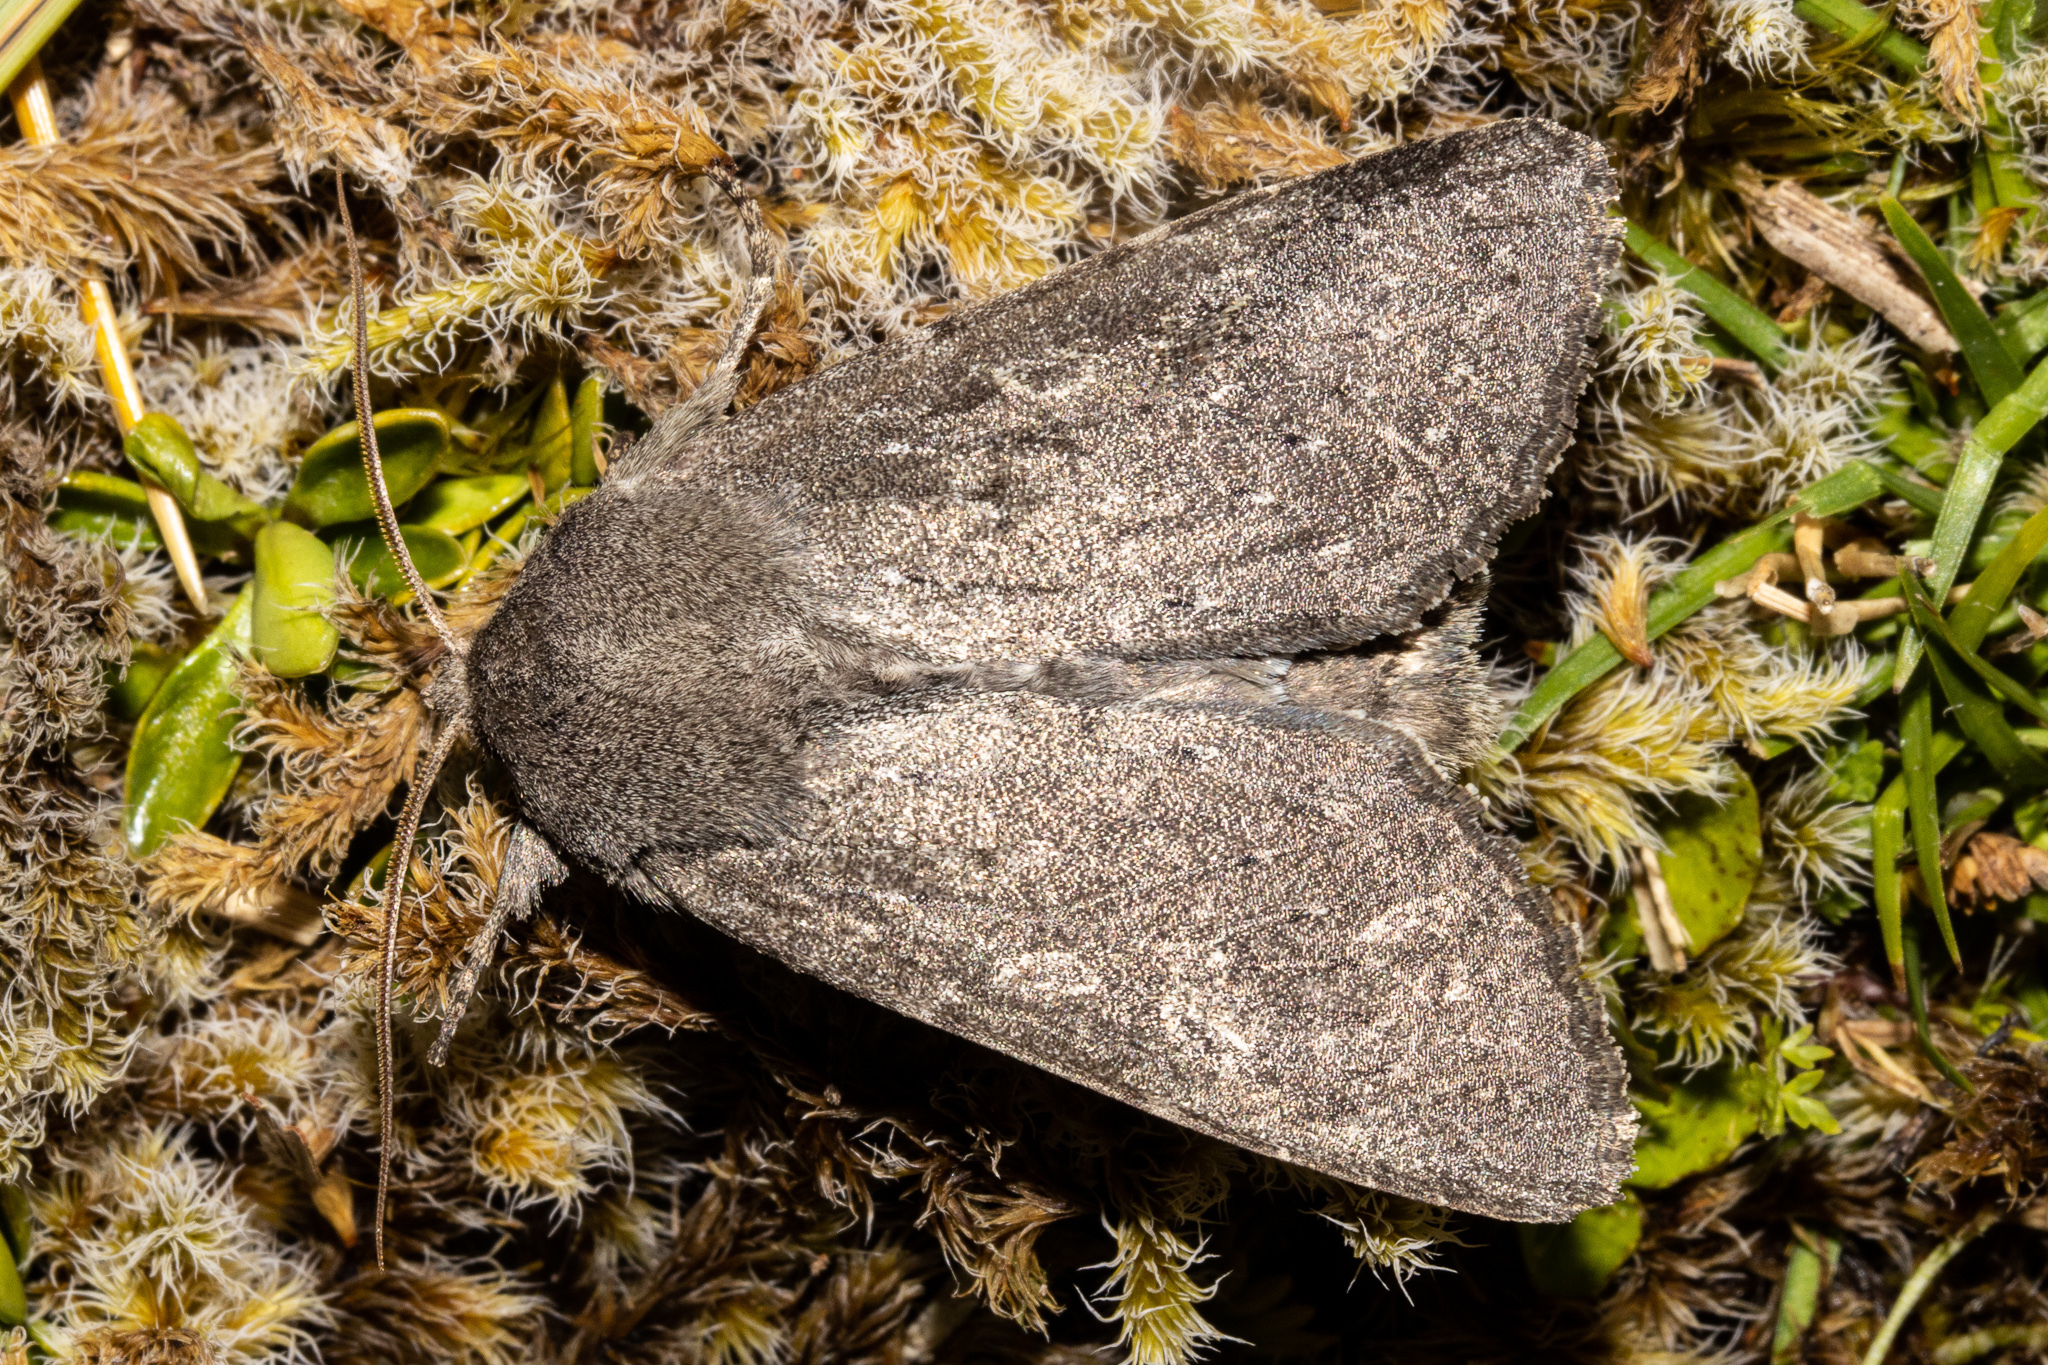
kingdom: Animalia
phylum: Arthropoda
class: Insecta
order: Lepidoptera
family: Noctuidae
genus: Ichneutica
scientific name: Ichneutica nullifera
